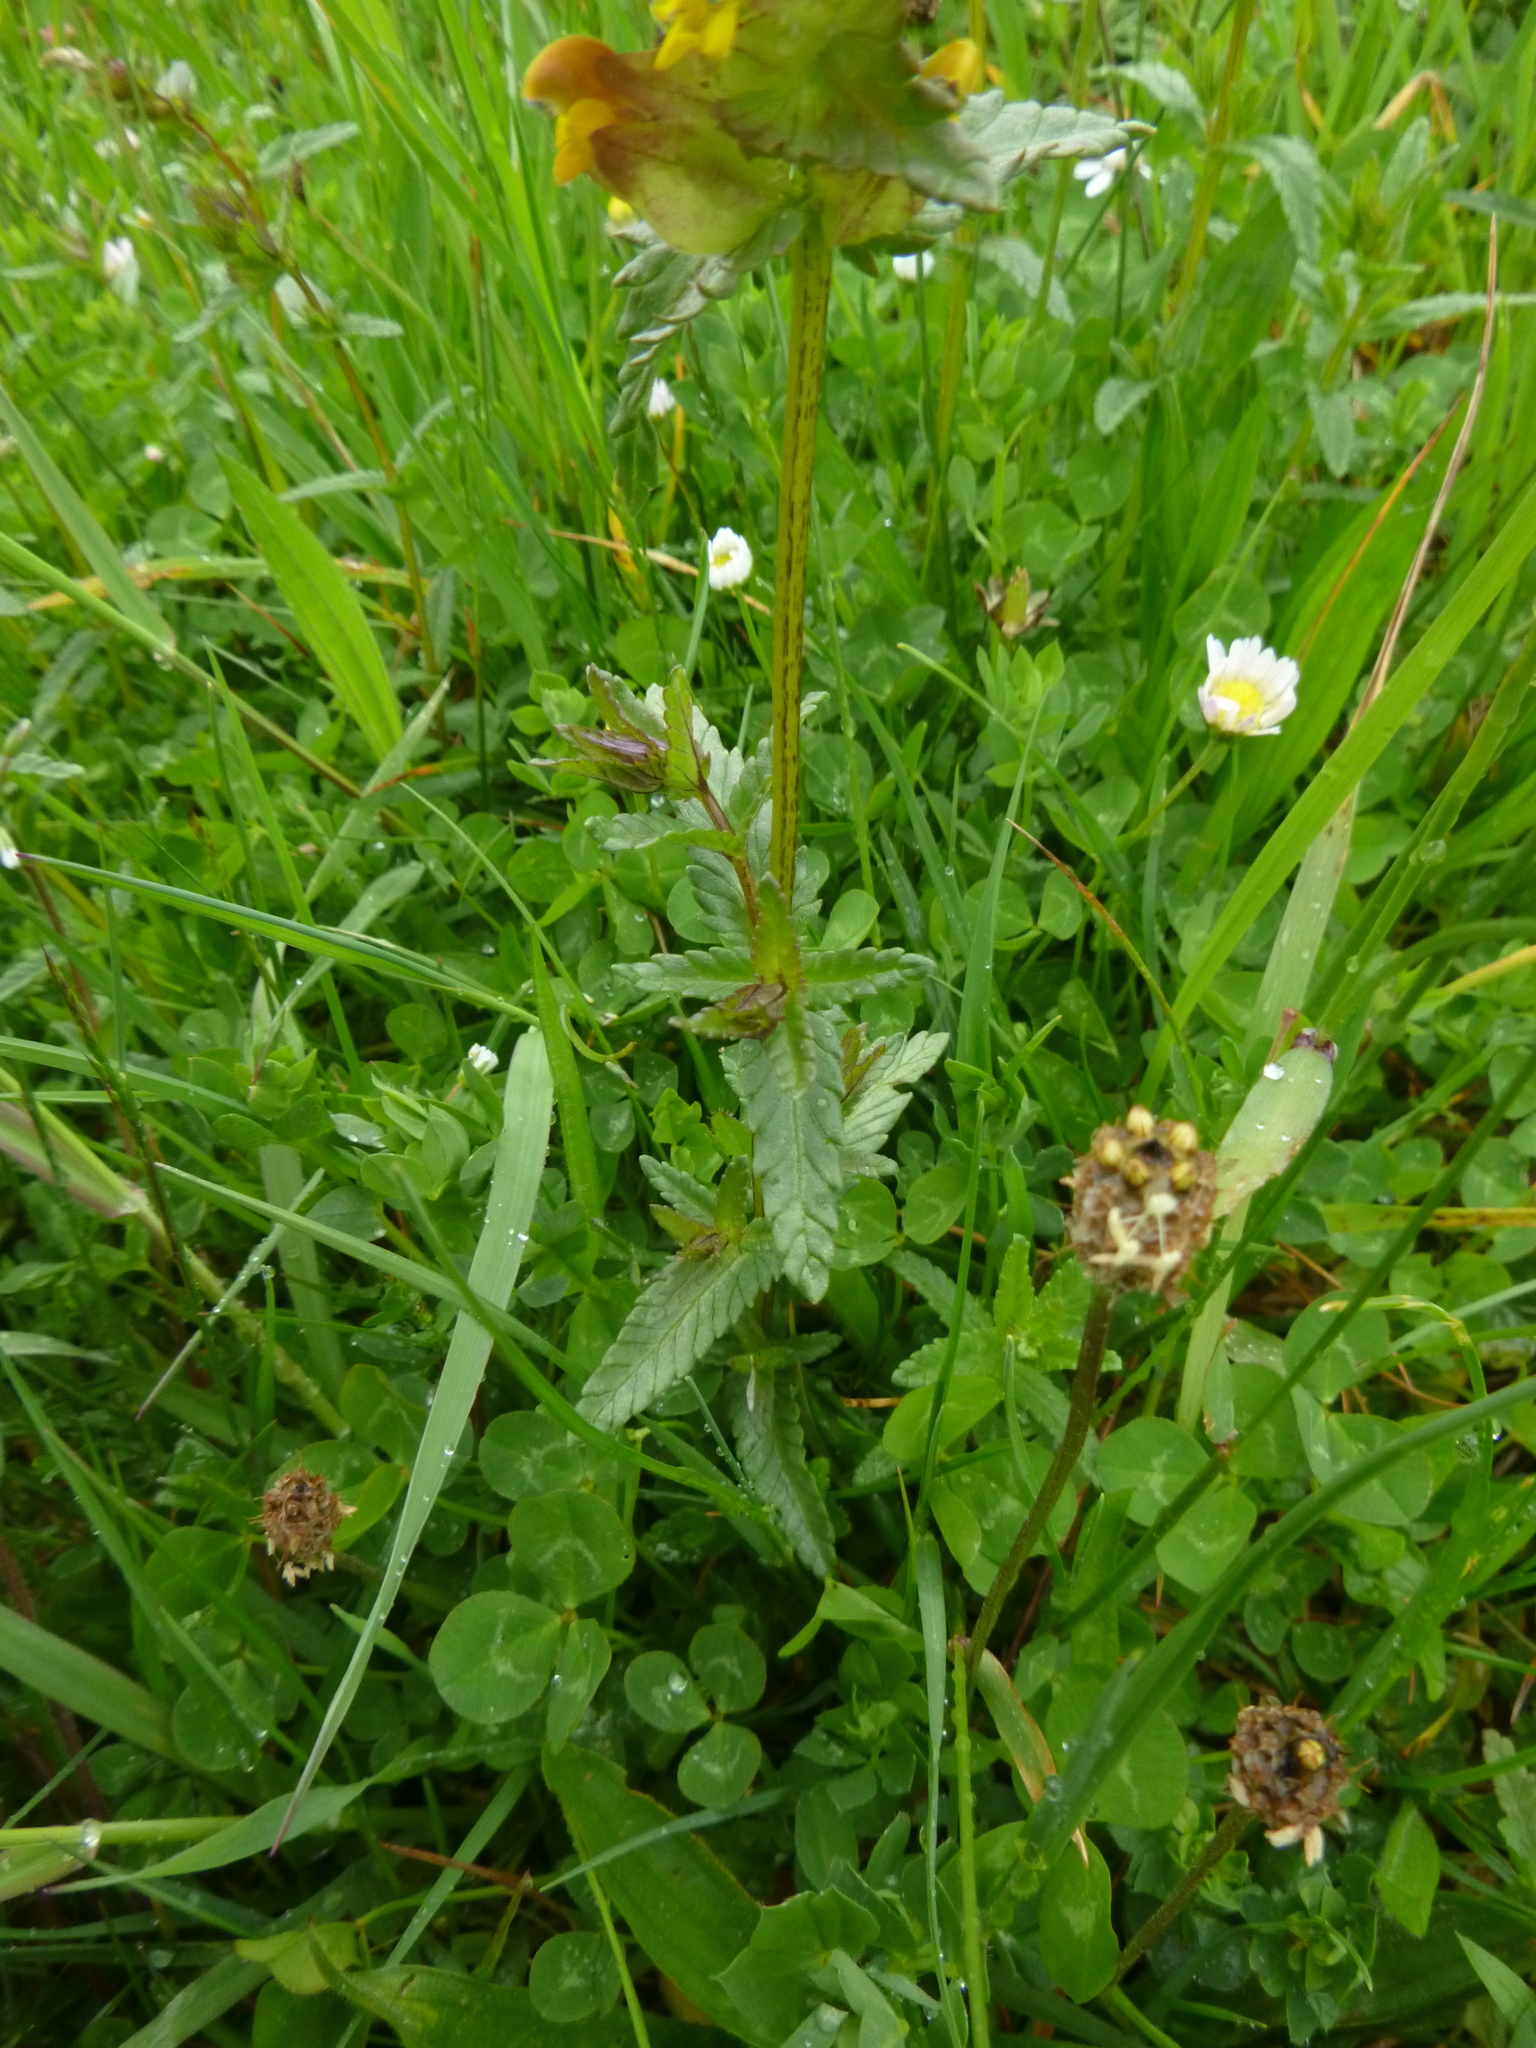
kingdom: Plantae
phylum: Tracheophyta
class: Magnoliopsida
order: Lamiales
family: Orobanchaceae
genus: Rhinanthus
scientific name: Rhinanthus minor
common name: Yellow-rattle
